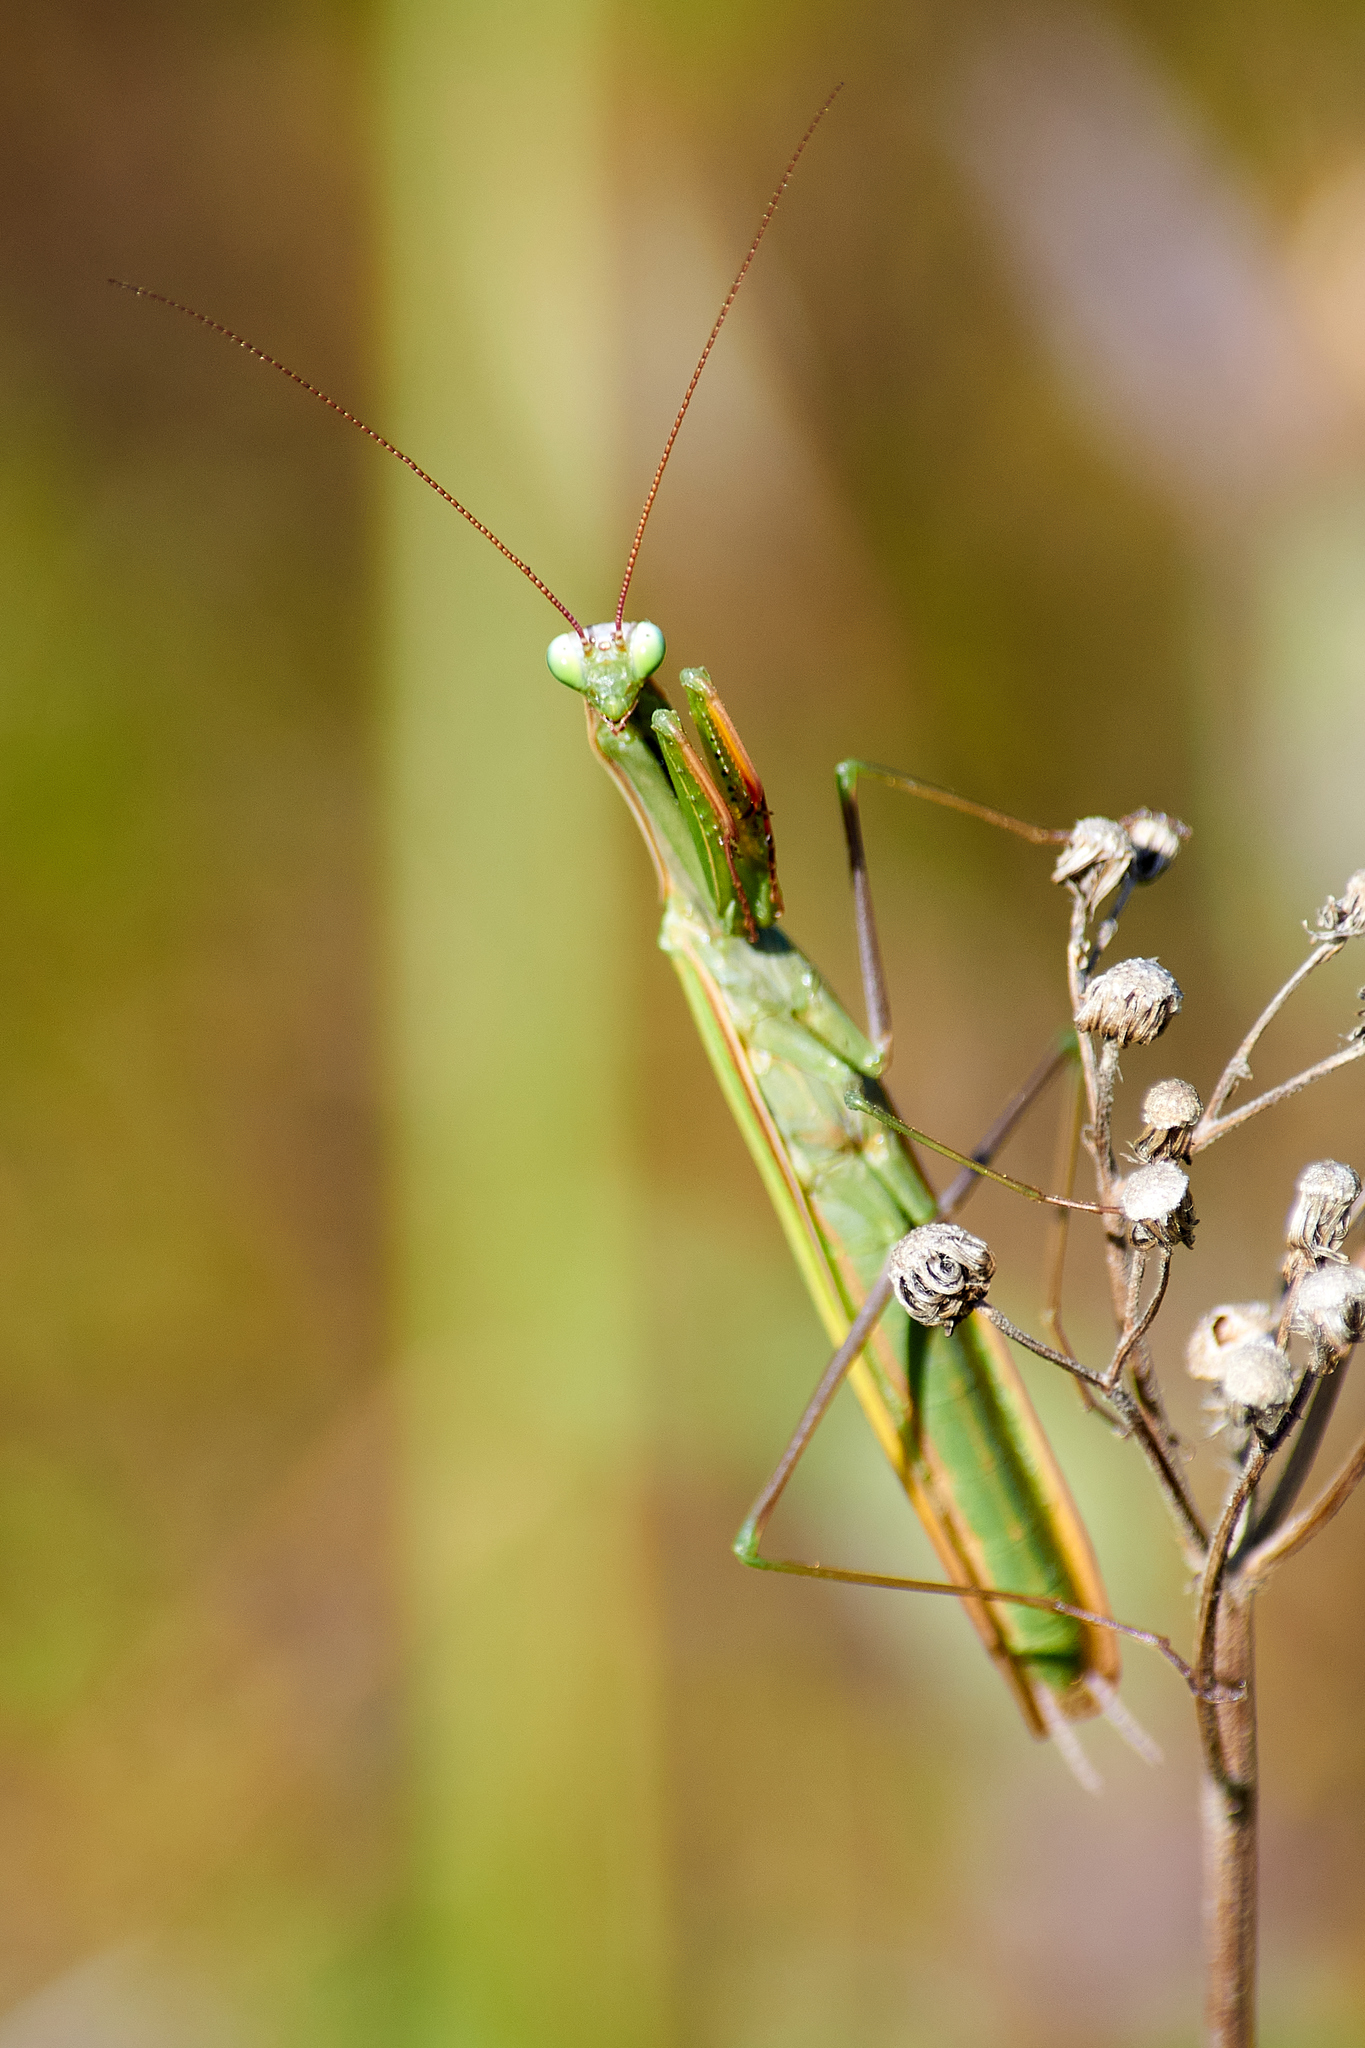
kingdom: Animalia
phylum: Arthropoda
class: Insecta
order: Mantodea
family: Mantidae
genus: Mantis
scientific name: Mantis religiosa
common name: Praying mantis
